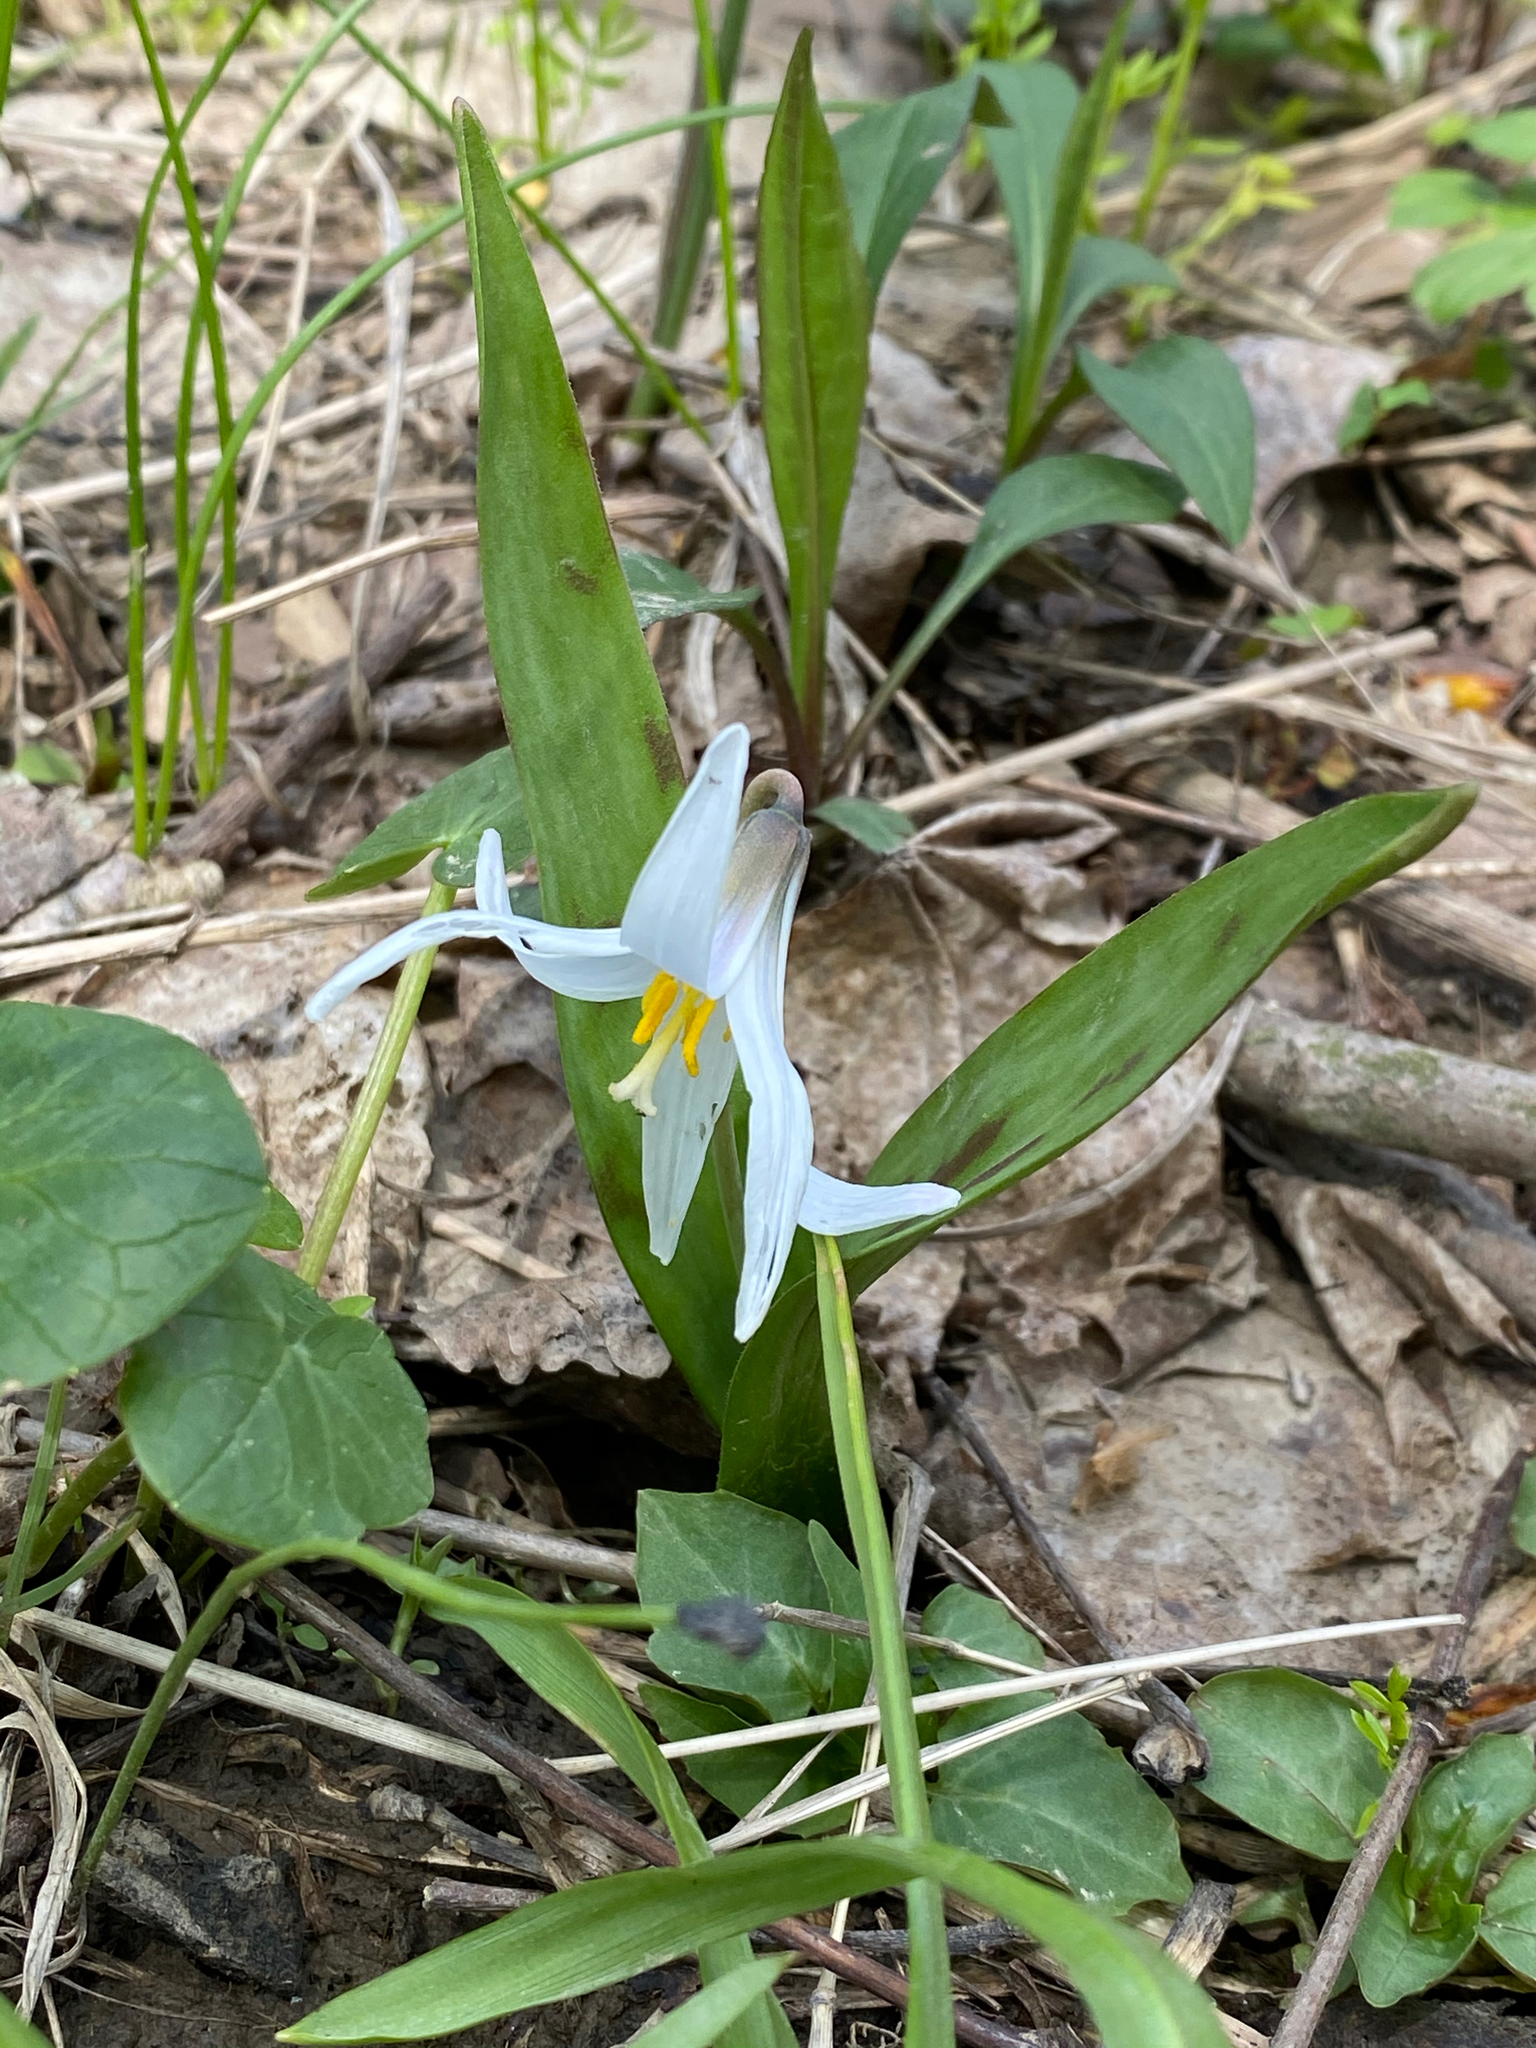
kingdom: Plantae
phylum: Tracheophyta
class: Liliopsida
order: Liliales
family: Liliaceae
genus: Erythronium
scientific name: Erythronium albidum
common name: White trout-lily
